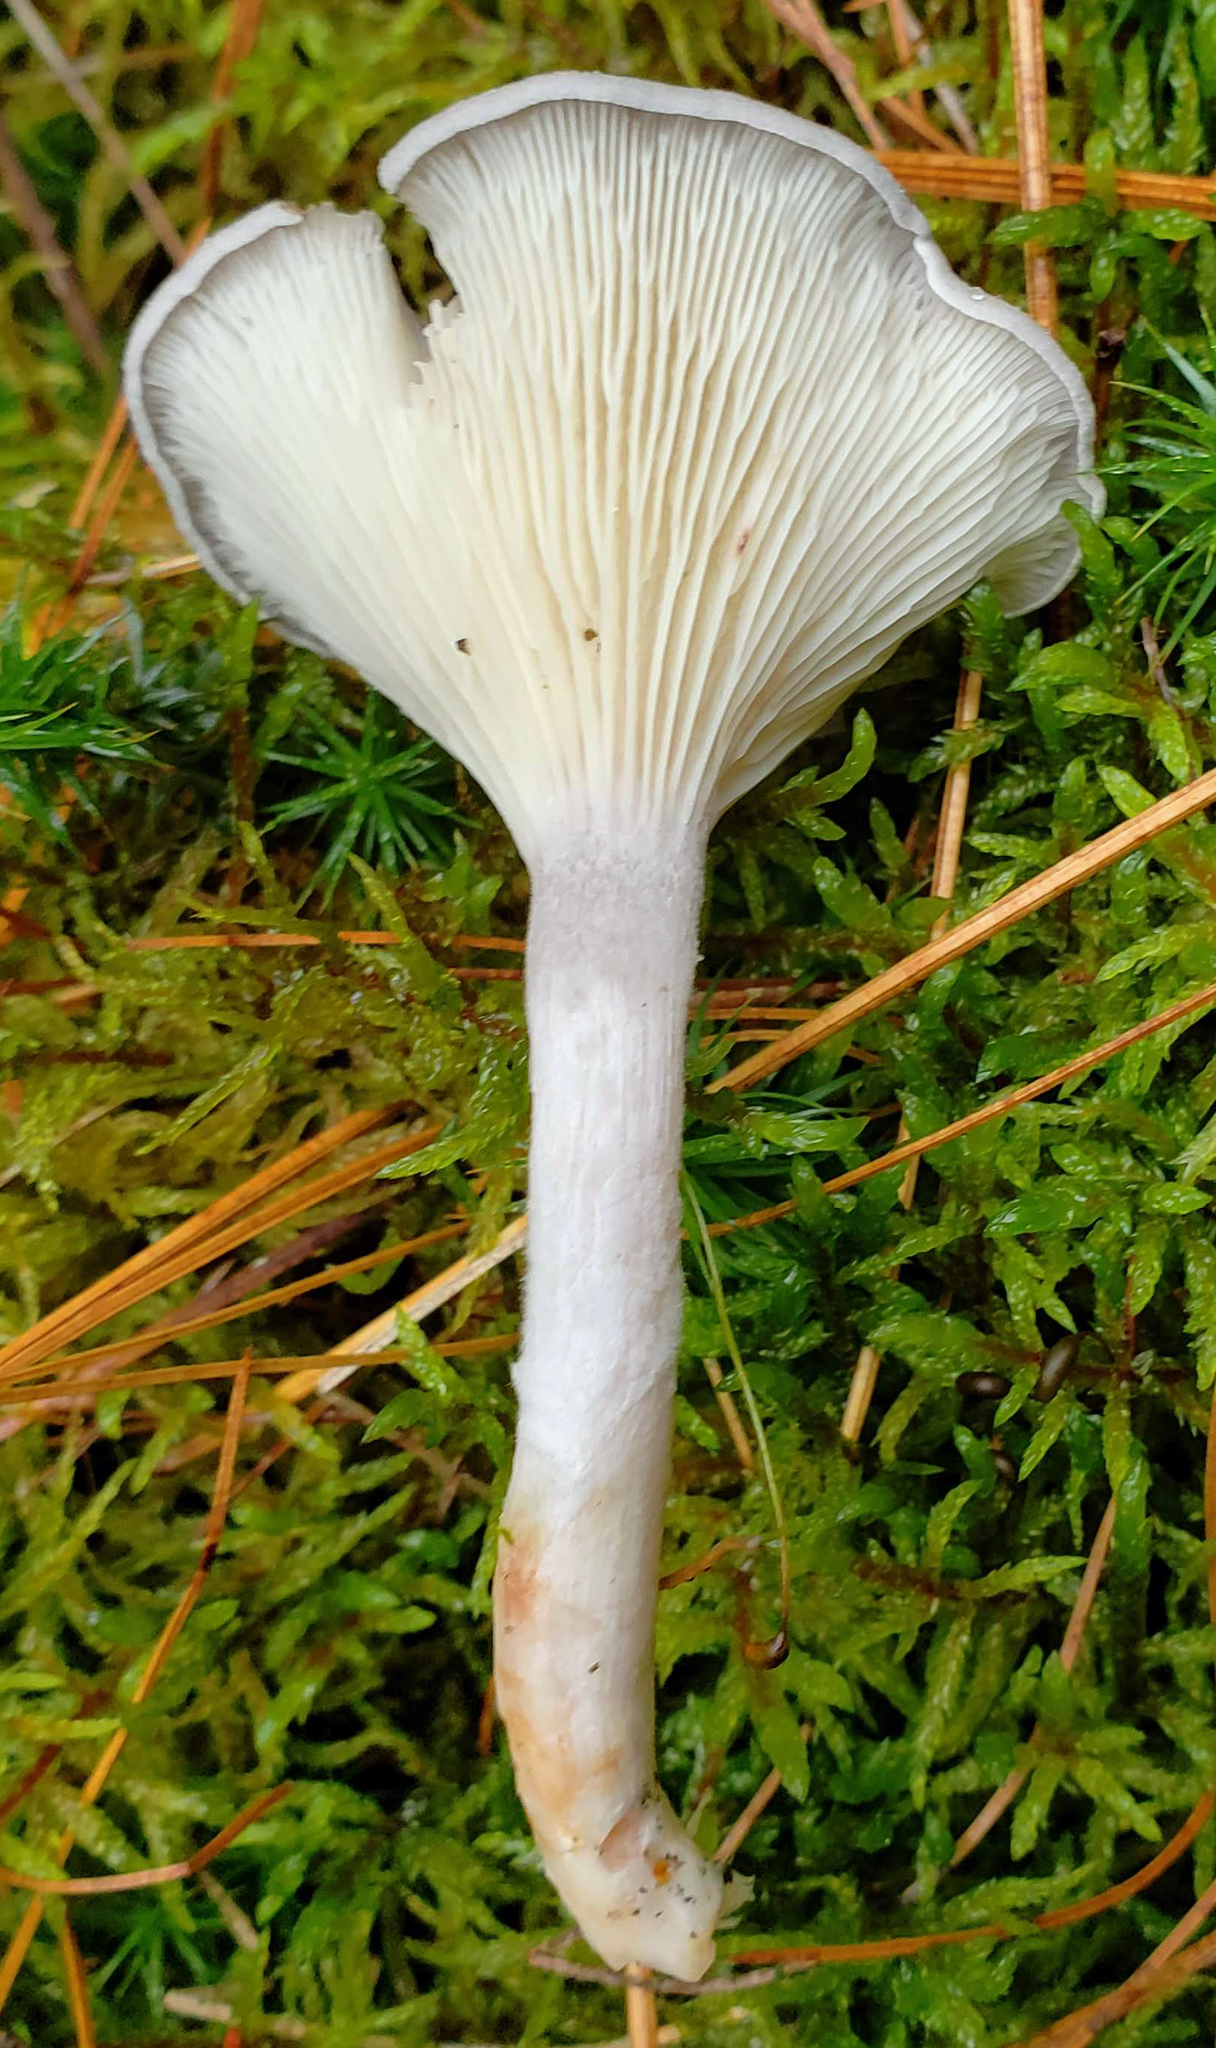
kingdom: Fungi
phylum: Basidiomycota
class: Agaricomycetes
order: Agaricales
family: Hygrophoraceae
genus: Cantharellula
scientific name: Cantharellula umbonata
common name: The humpback
